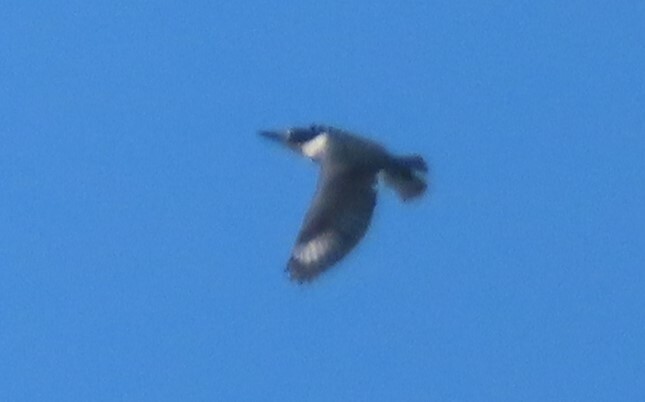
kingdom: Animalia
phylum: Chordata
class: Aves
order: Coraciiformes
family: Alcedinidae
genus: Megaceryle
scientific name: Megaceryle alcyon
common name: Belted kingfisher
